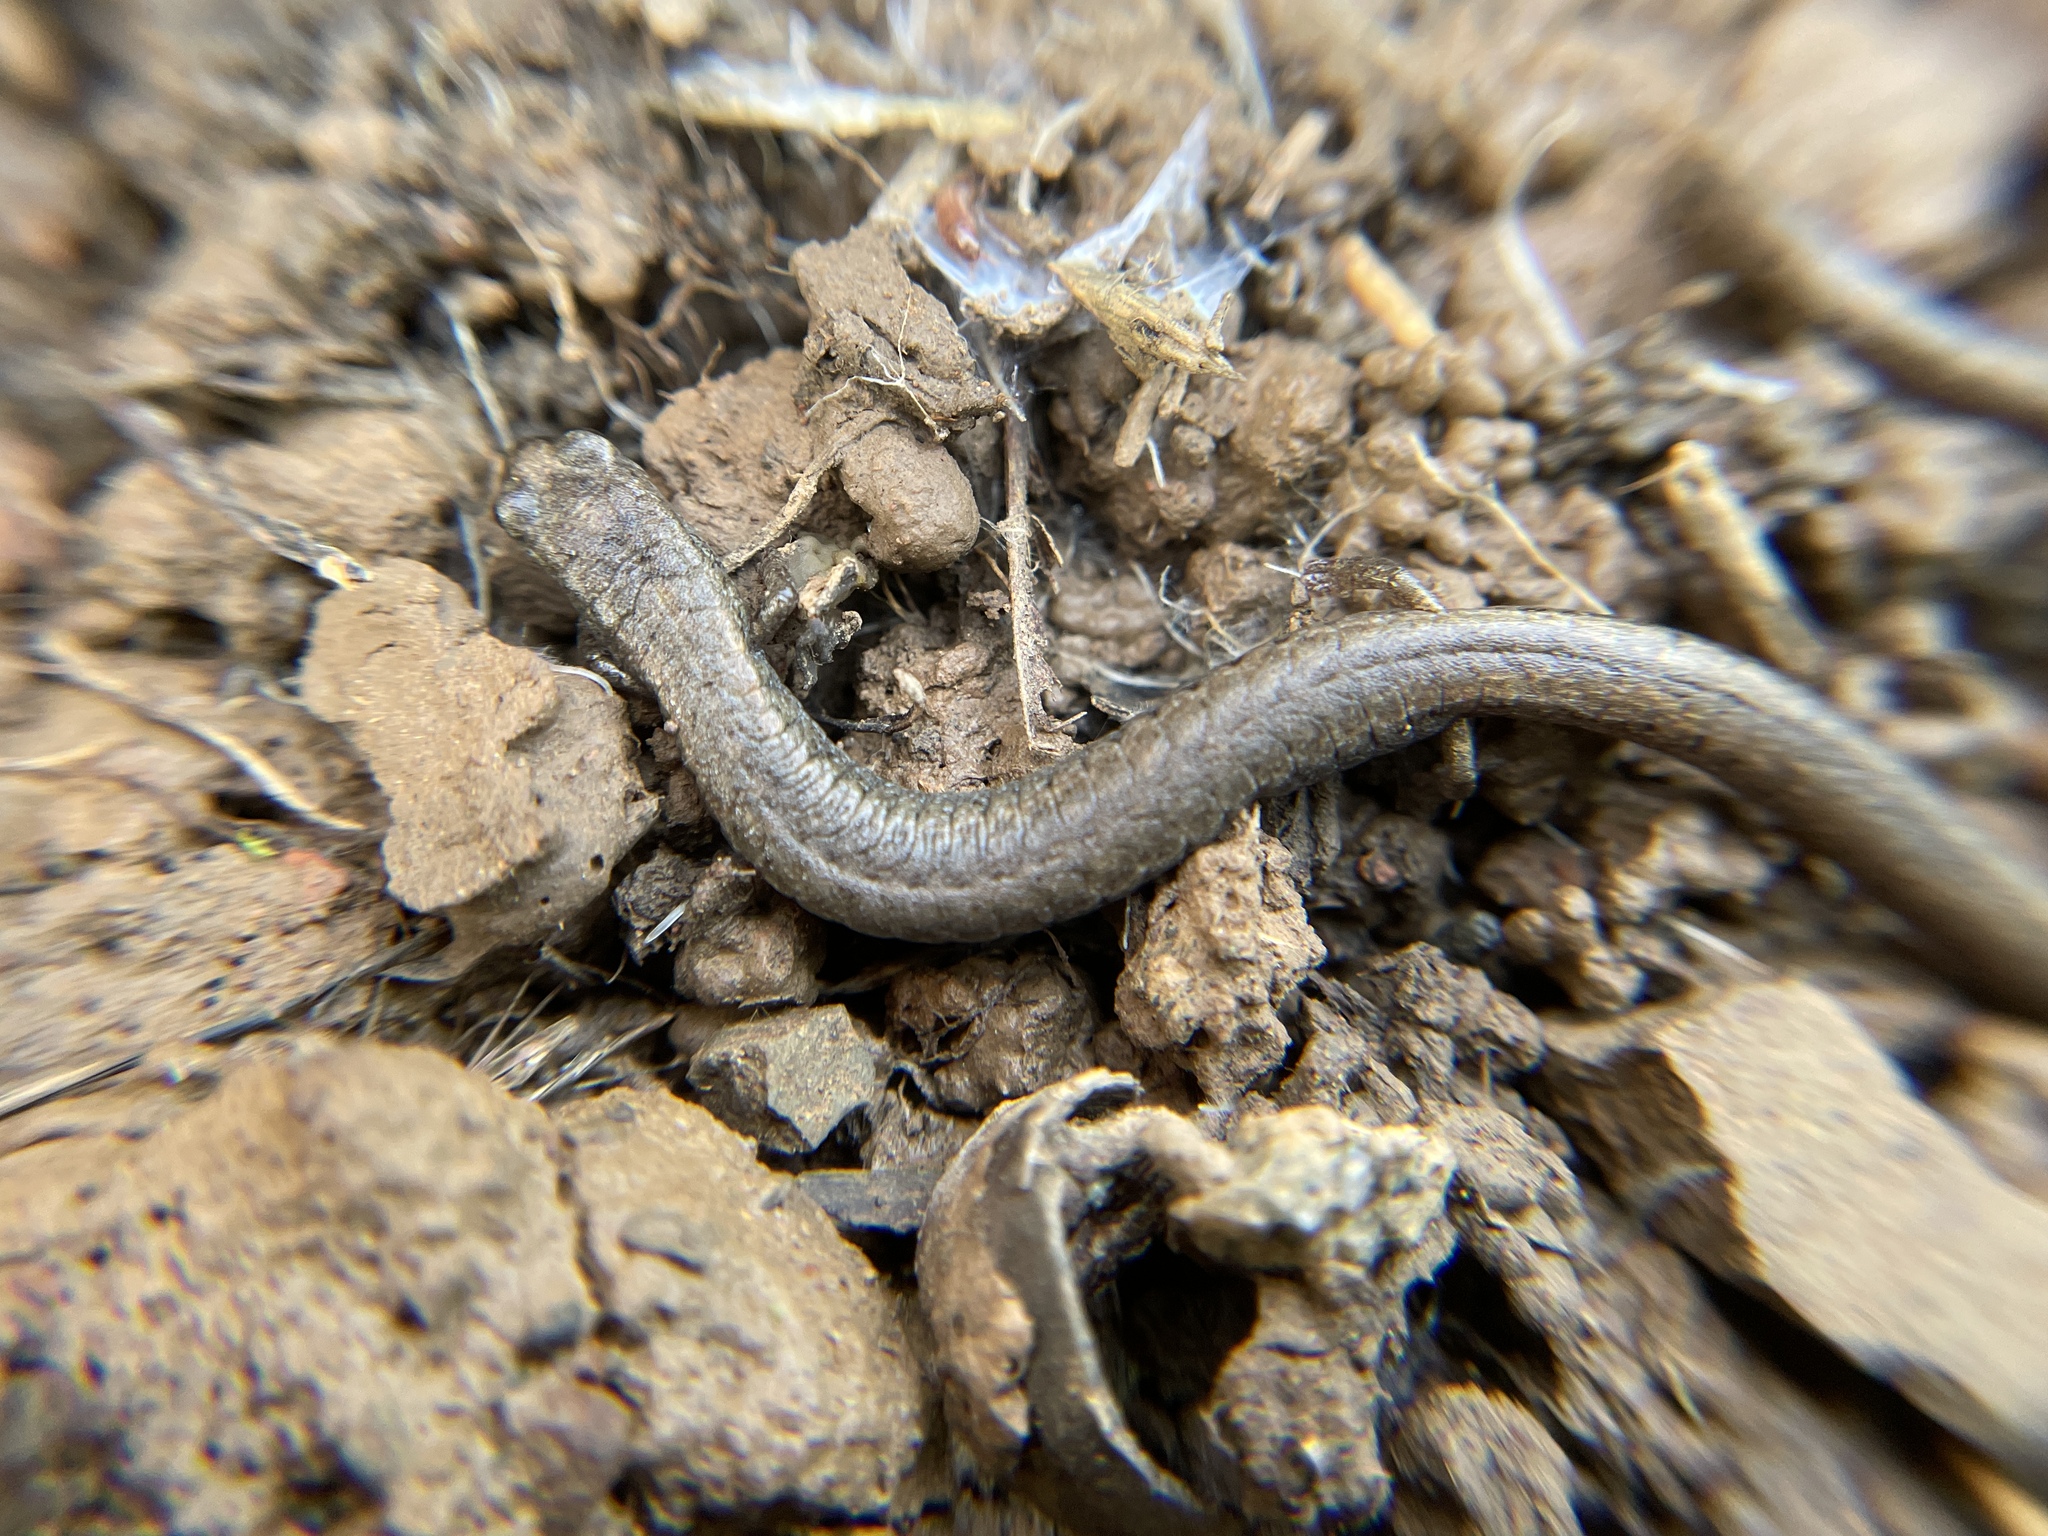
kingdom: Animalia
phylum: Chordata
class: Amphibia
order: Caudata
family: Plethodontidae
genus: Batrachoseps
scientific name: Batrachoseps attenuatus
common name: California slender salamander
